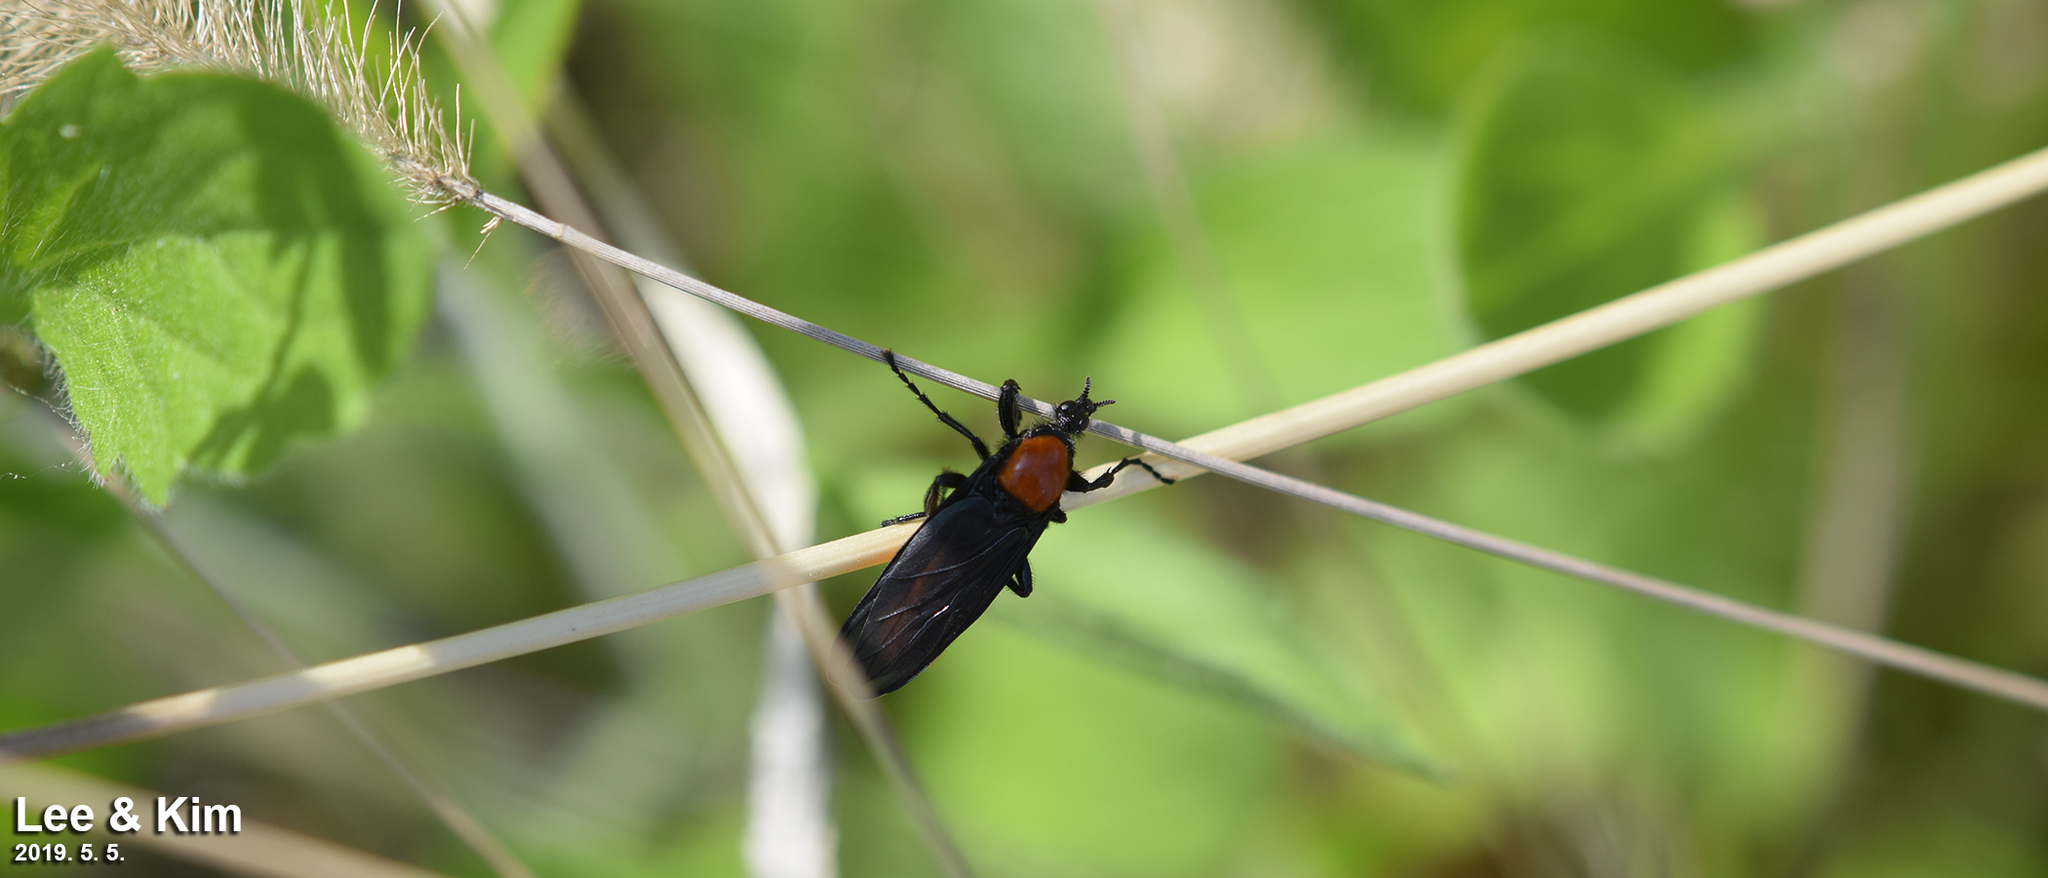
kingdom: Animalia
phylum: Arthropoda
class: Insecta
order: Diptera
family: Bibionidae
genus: Bibio
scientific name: Bibio rufiventris
